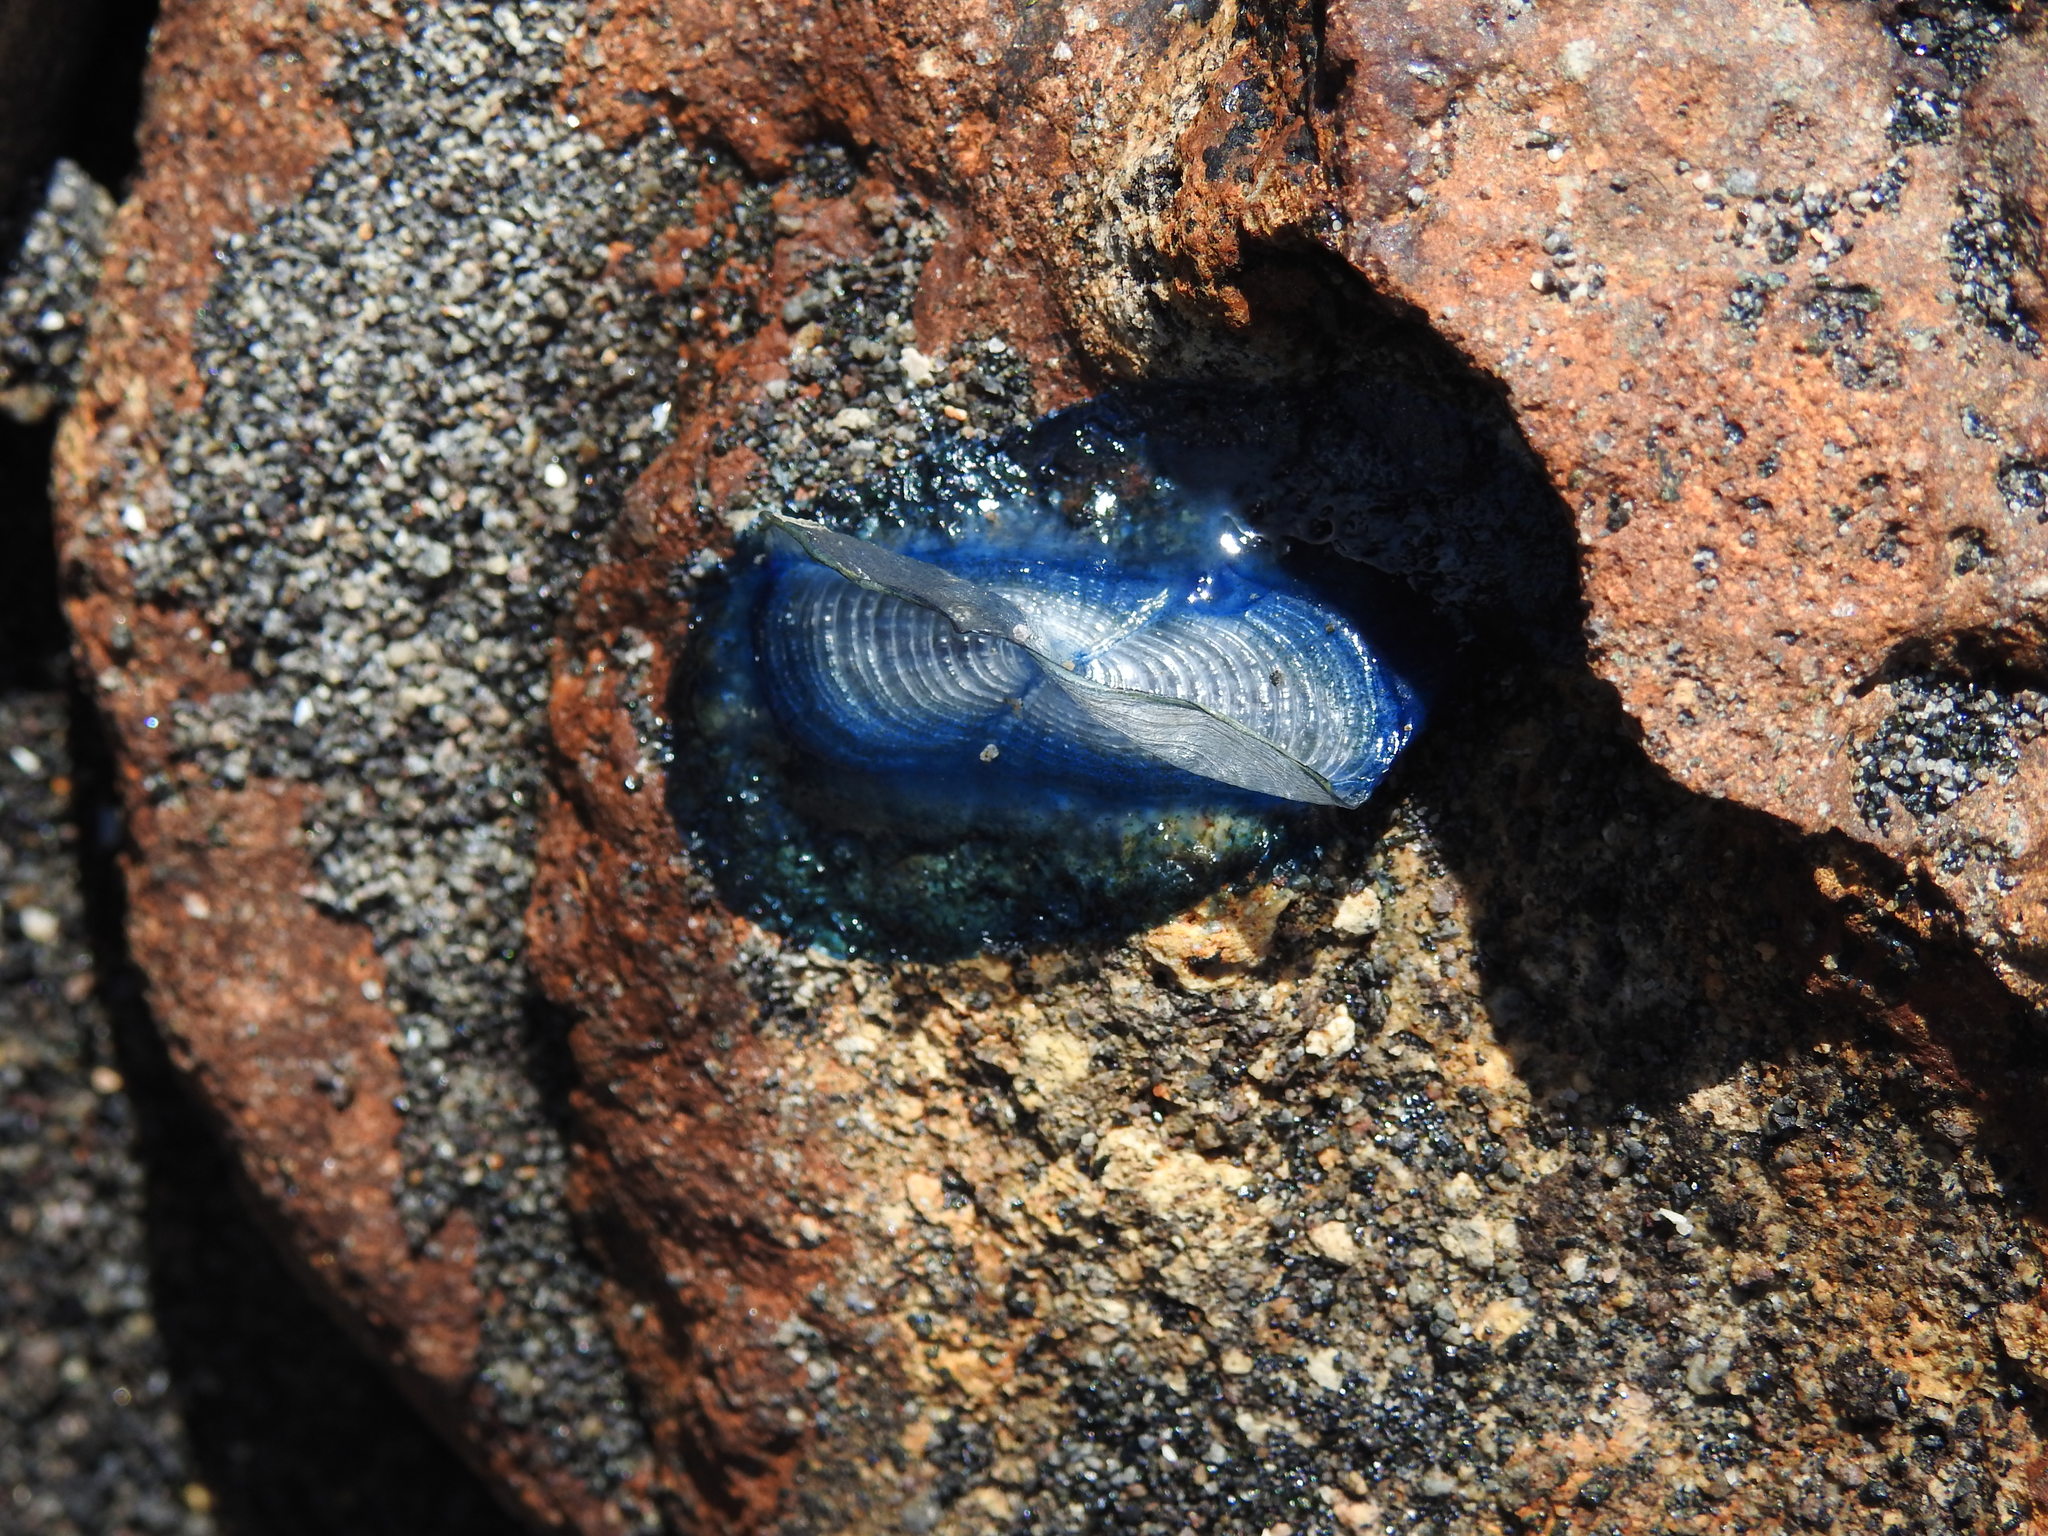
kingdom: Animalia
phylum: Cnidaria
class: Hydrozoa
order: Anthoathecata
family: Porpitidae
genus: Velella
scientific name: Velella velella
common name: By-the-wind-sailor
